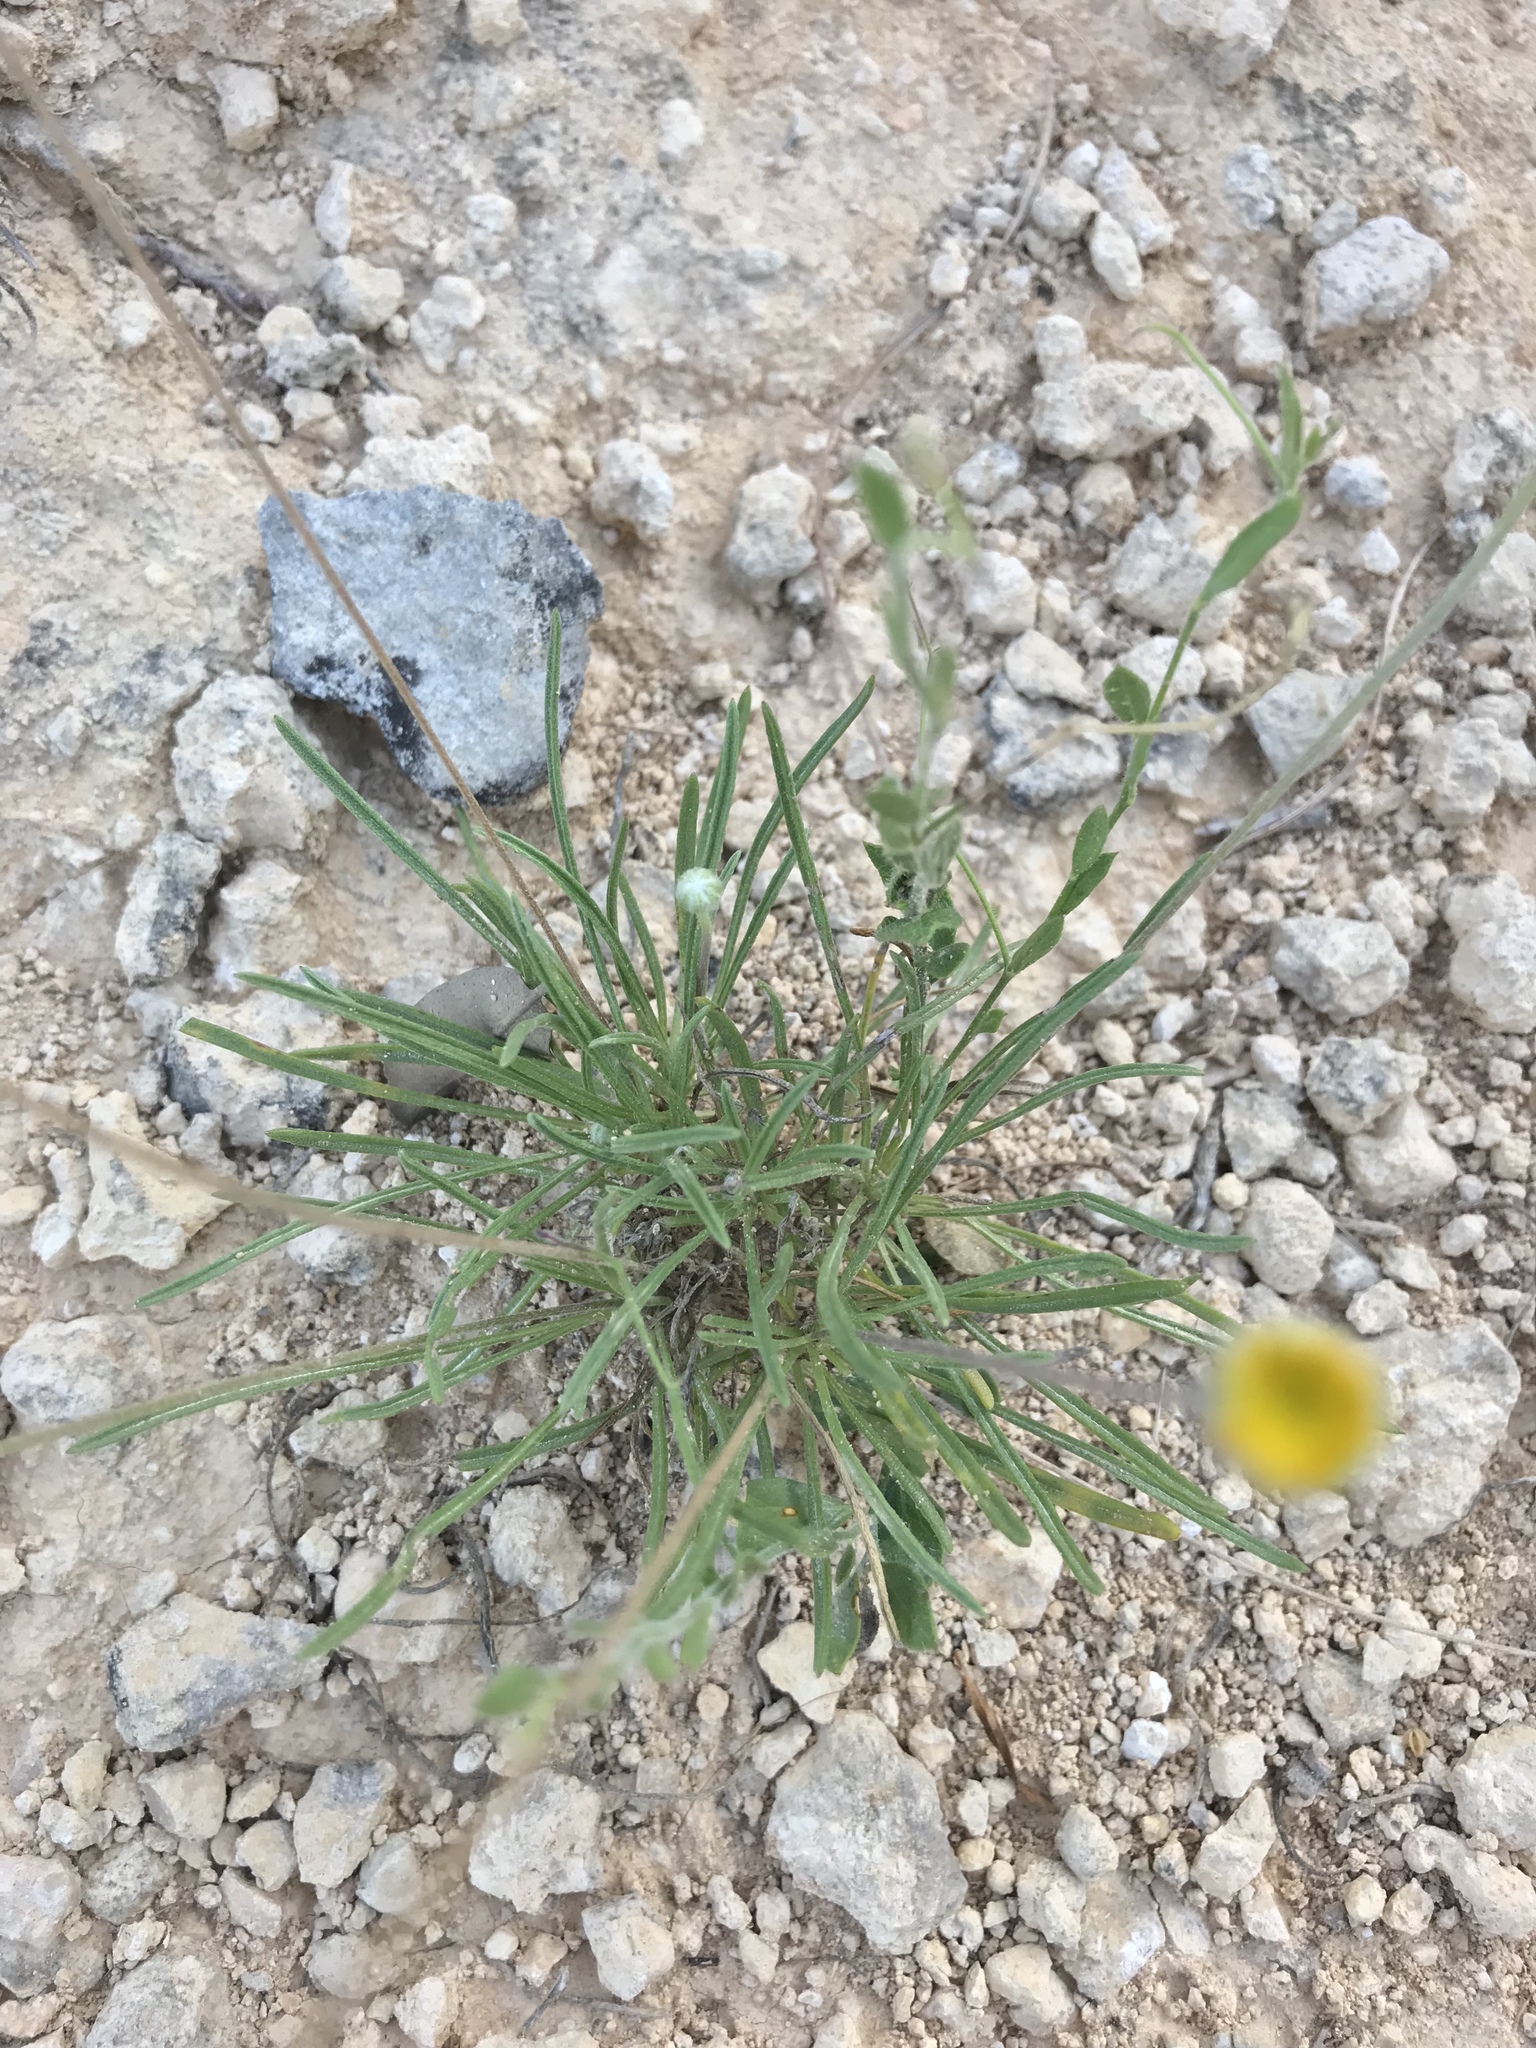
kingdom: Plantae
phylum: Tracheophyta
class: Magnoliopsida
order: Asterales
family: Asteraceae
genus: Tetraneuris
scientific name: Tetraneuris scaposa
